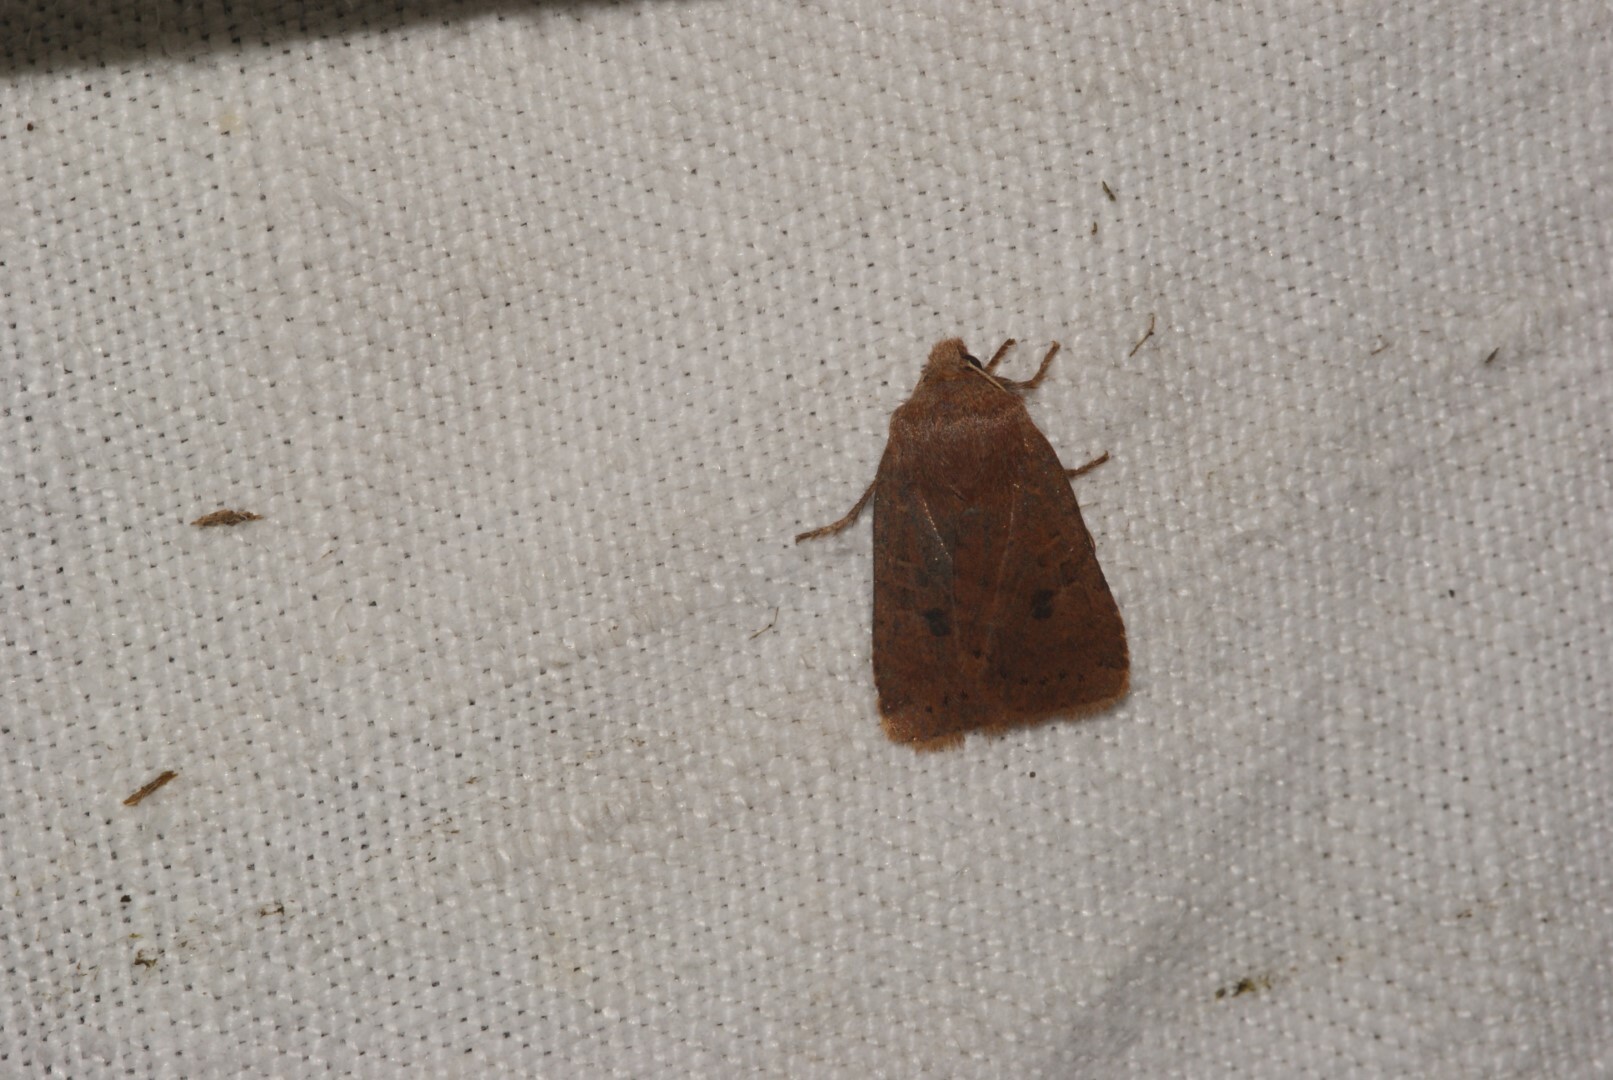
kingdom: Animalia
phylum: Arthropoda
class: Insecta
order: Lepidoptera
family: Noctuidae
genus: Conistra
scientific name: Conistra vaccinii
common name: Chestnut
